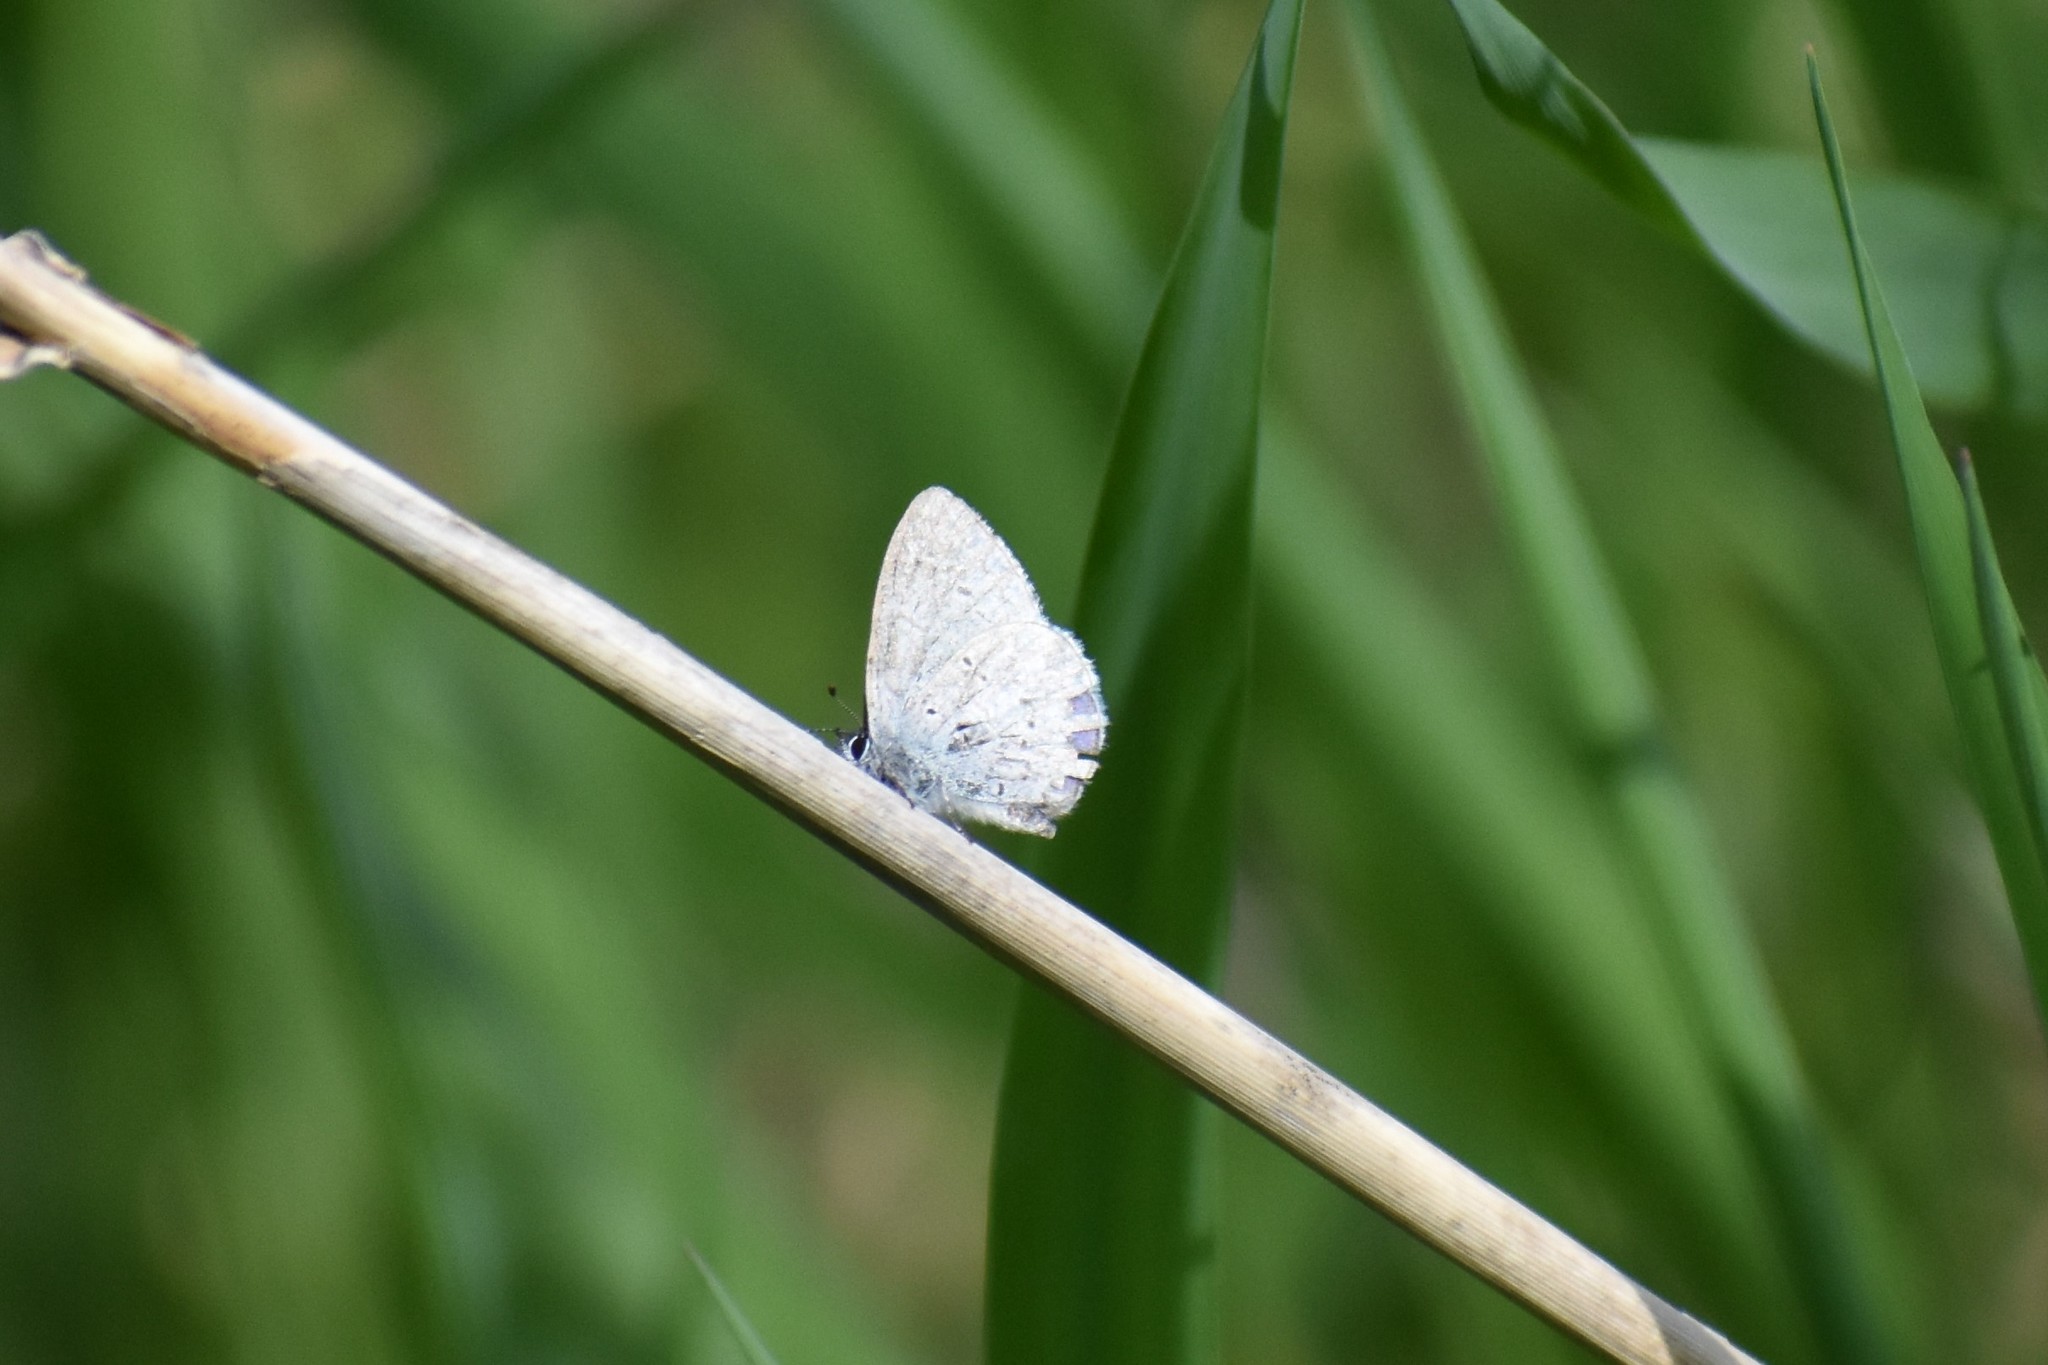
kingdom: Animalia
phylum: Arthropoda
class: Insecta
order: Lepidoptera
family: Lycaenidae
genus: Celastrina
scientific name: Celastrina ladon
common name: Spring azure
